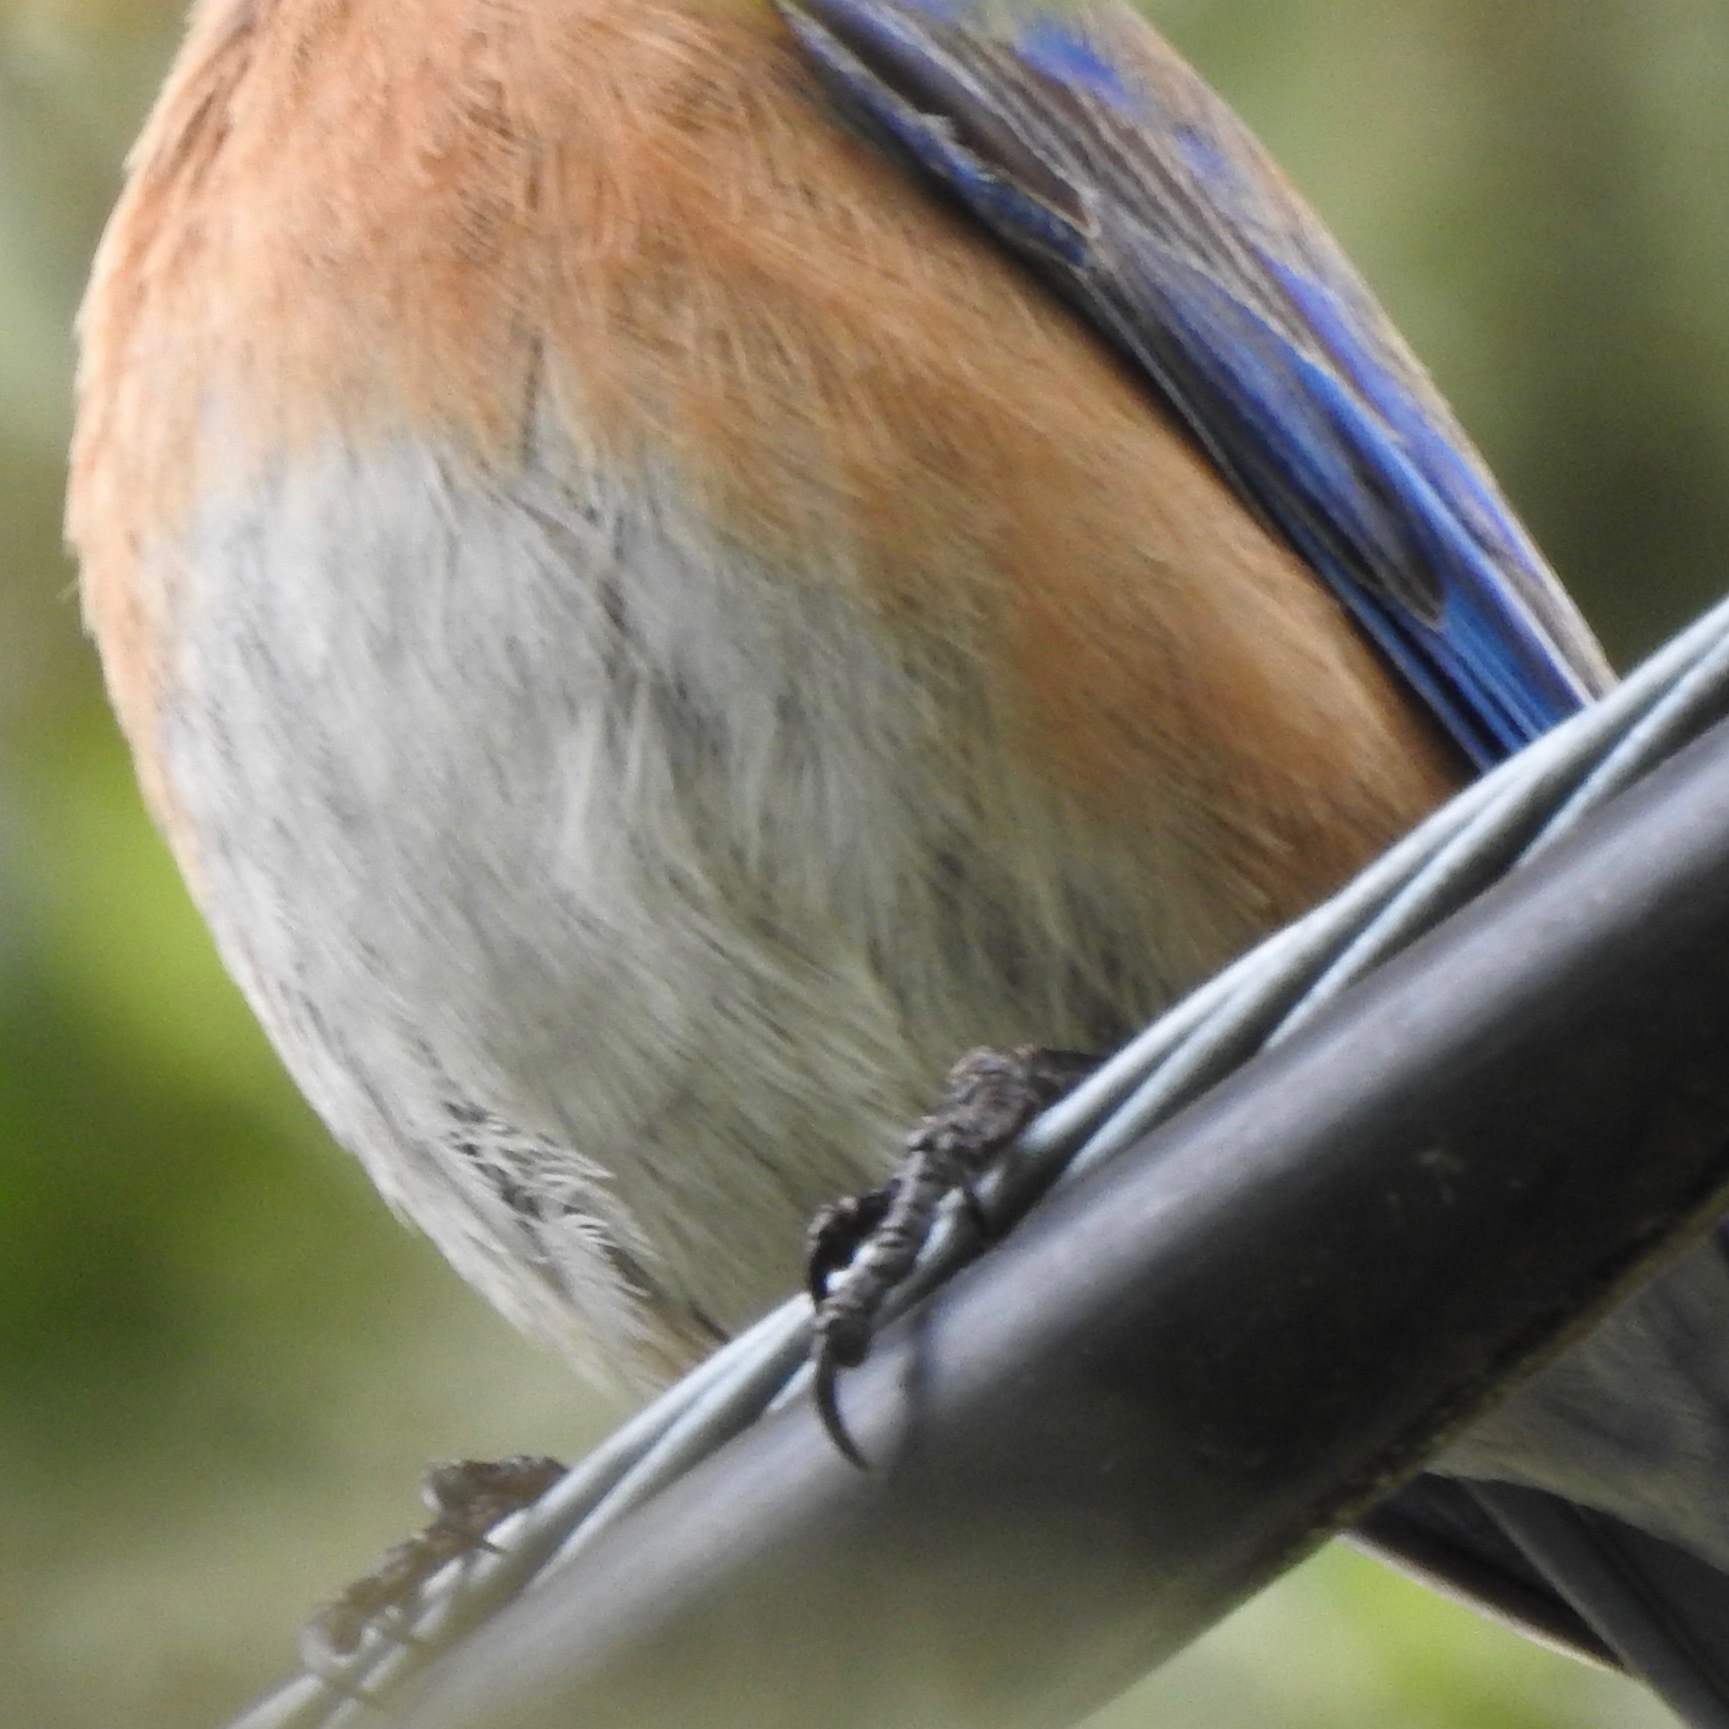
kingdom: Animalia
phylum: Chordata
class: Aves
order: Passeriformes
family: Turdidae
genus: Sialia
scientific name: Sialia mexicana
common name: Western bluebird
